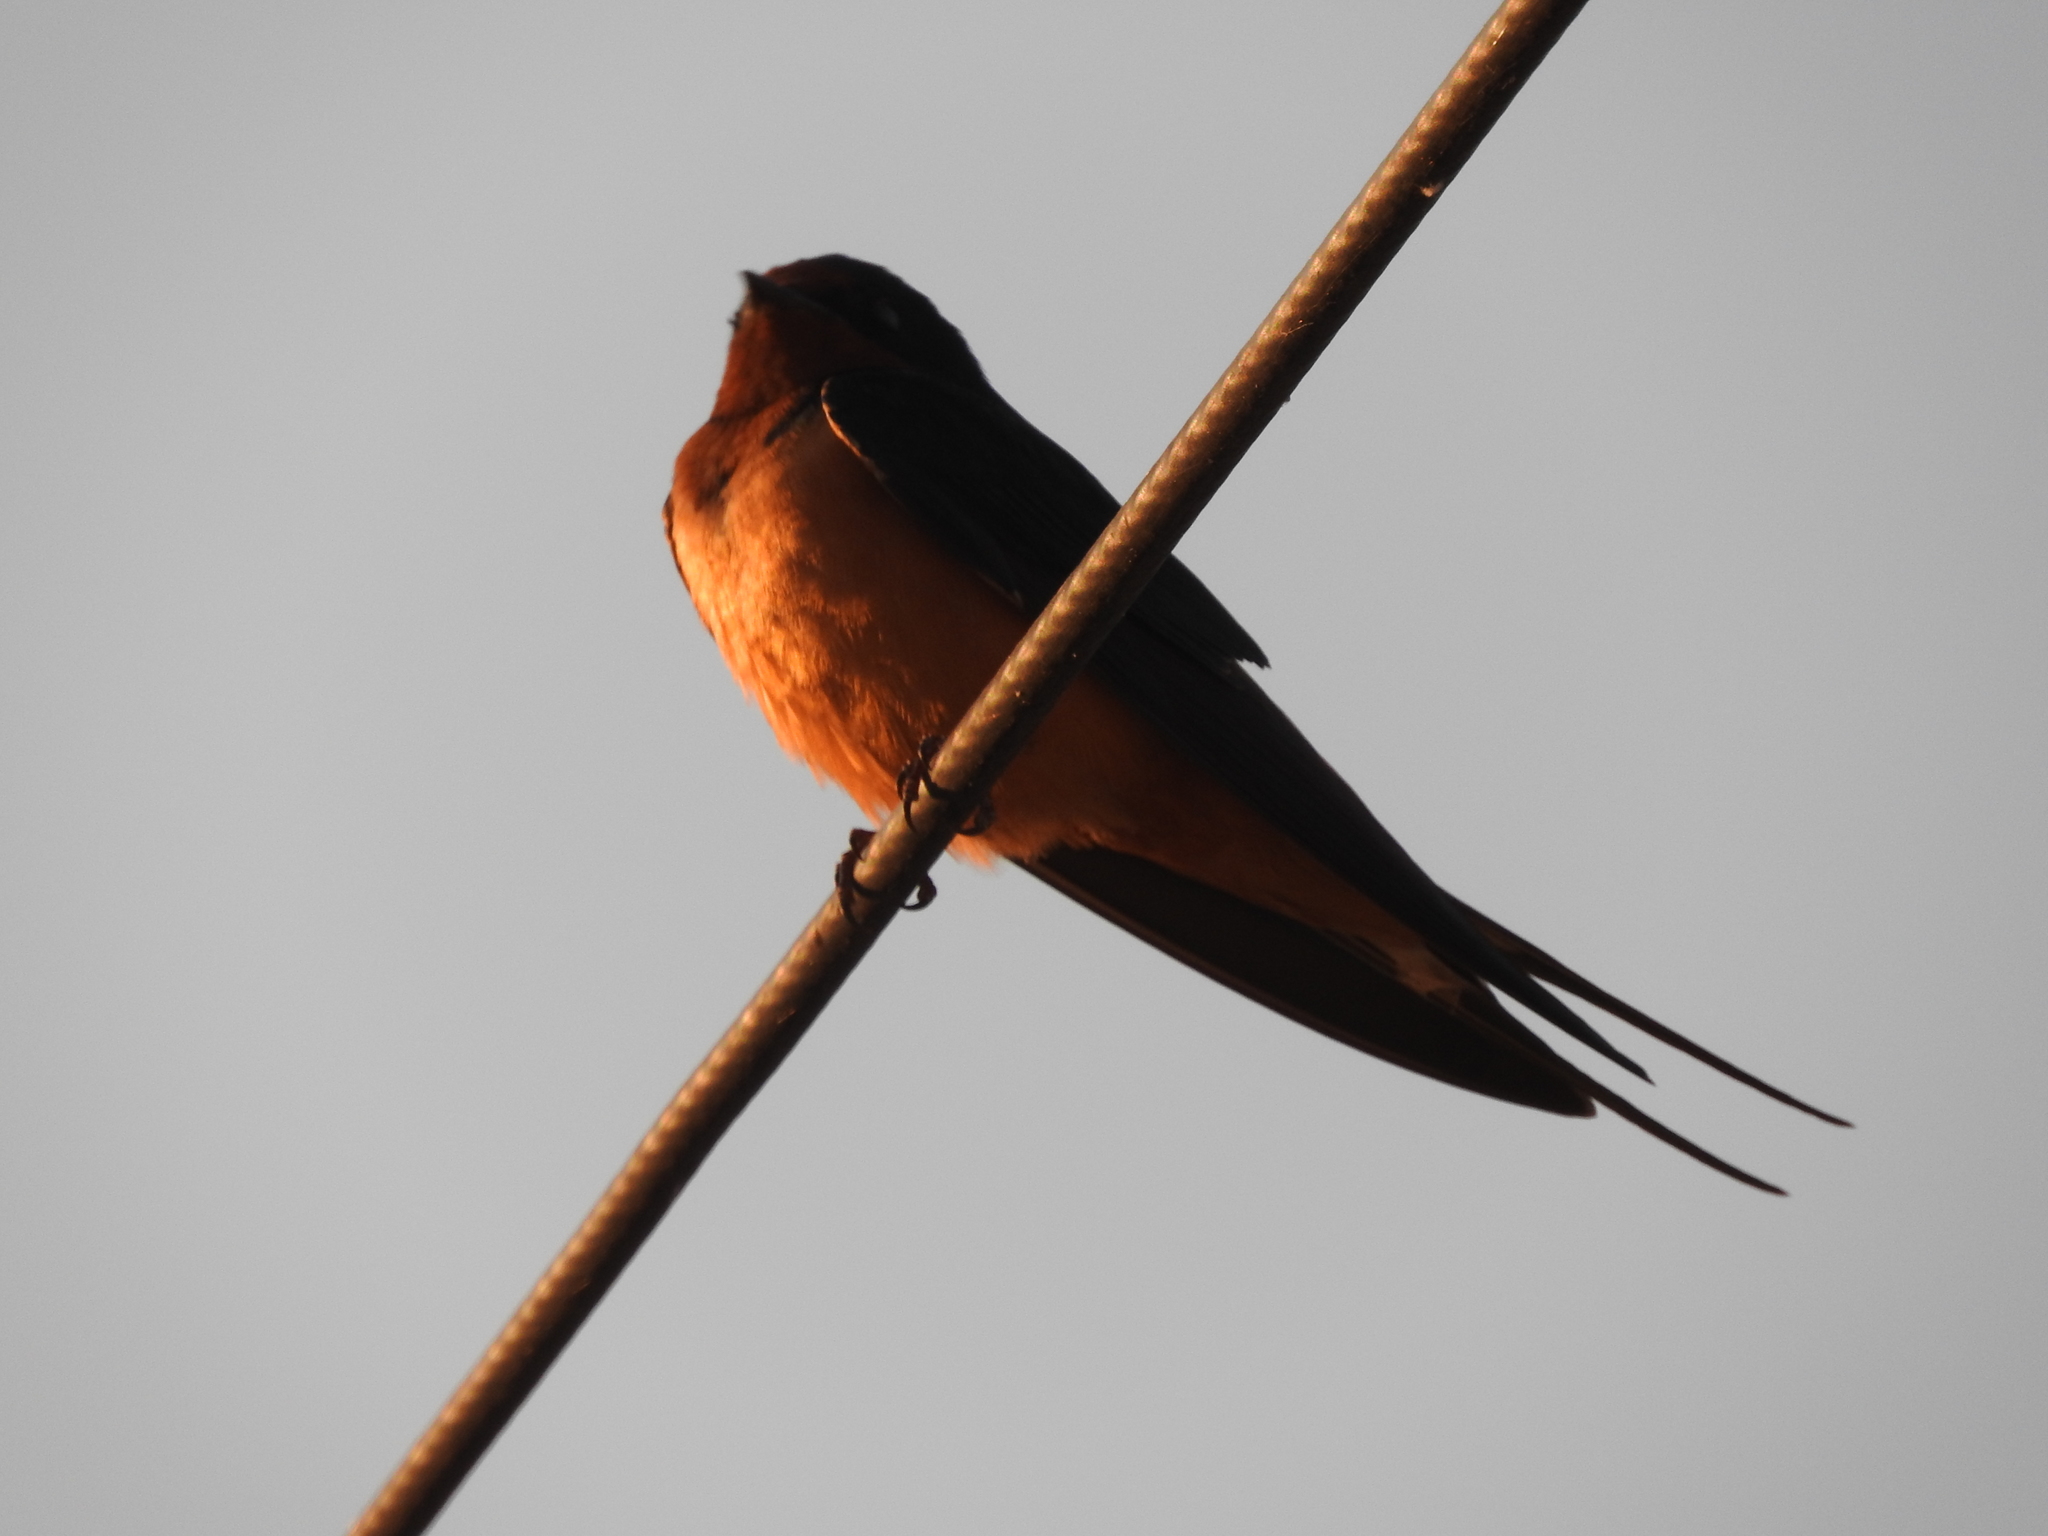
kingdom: Animalia
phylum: Chordata
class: Aves
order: Passeriformes
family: Hirundinidae
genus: Hirundo
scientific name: Hirundo rustica
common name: Barn swallow
